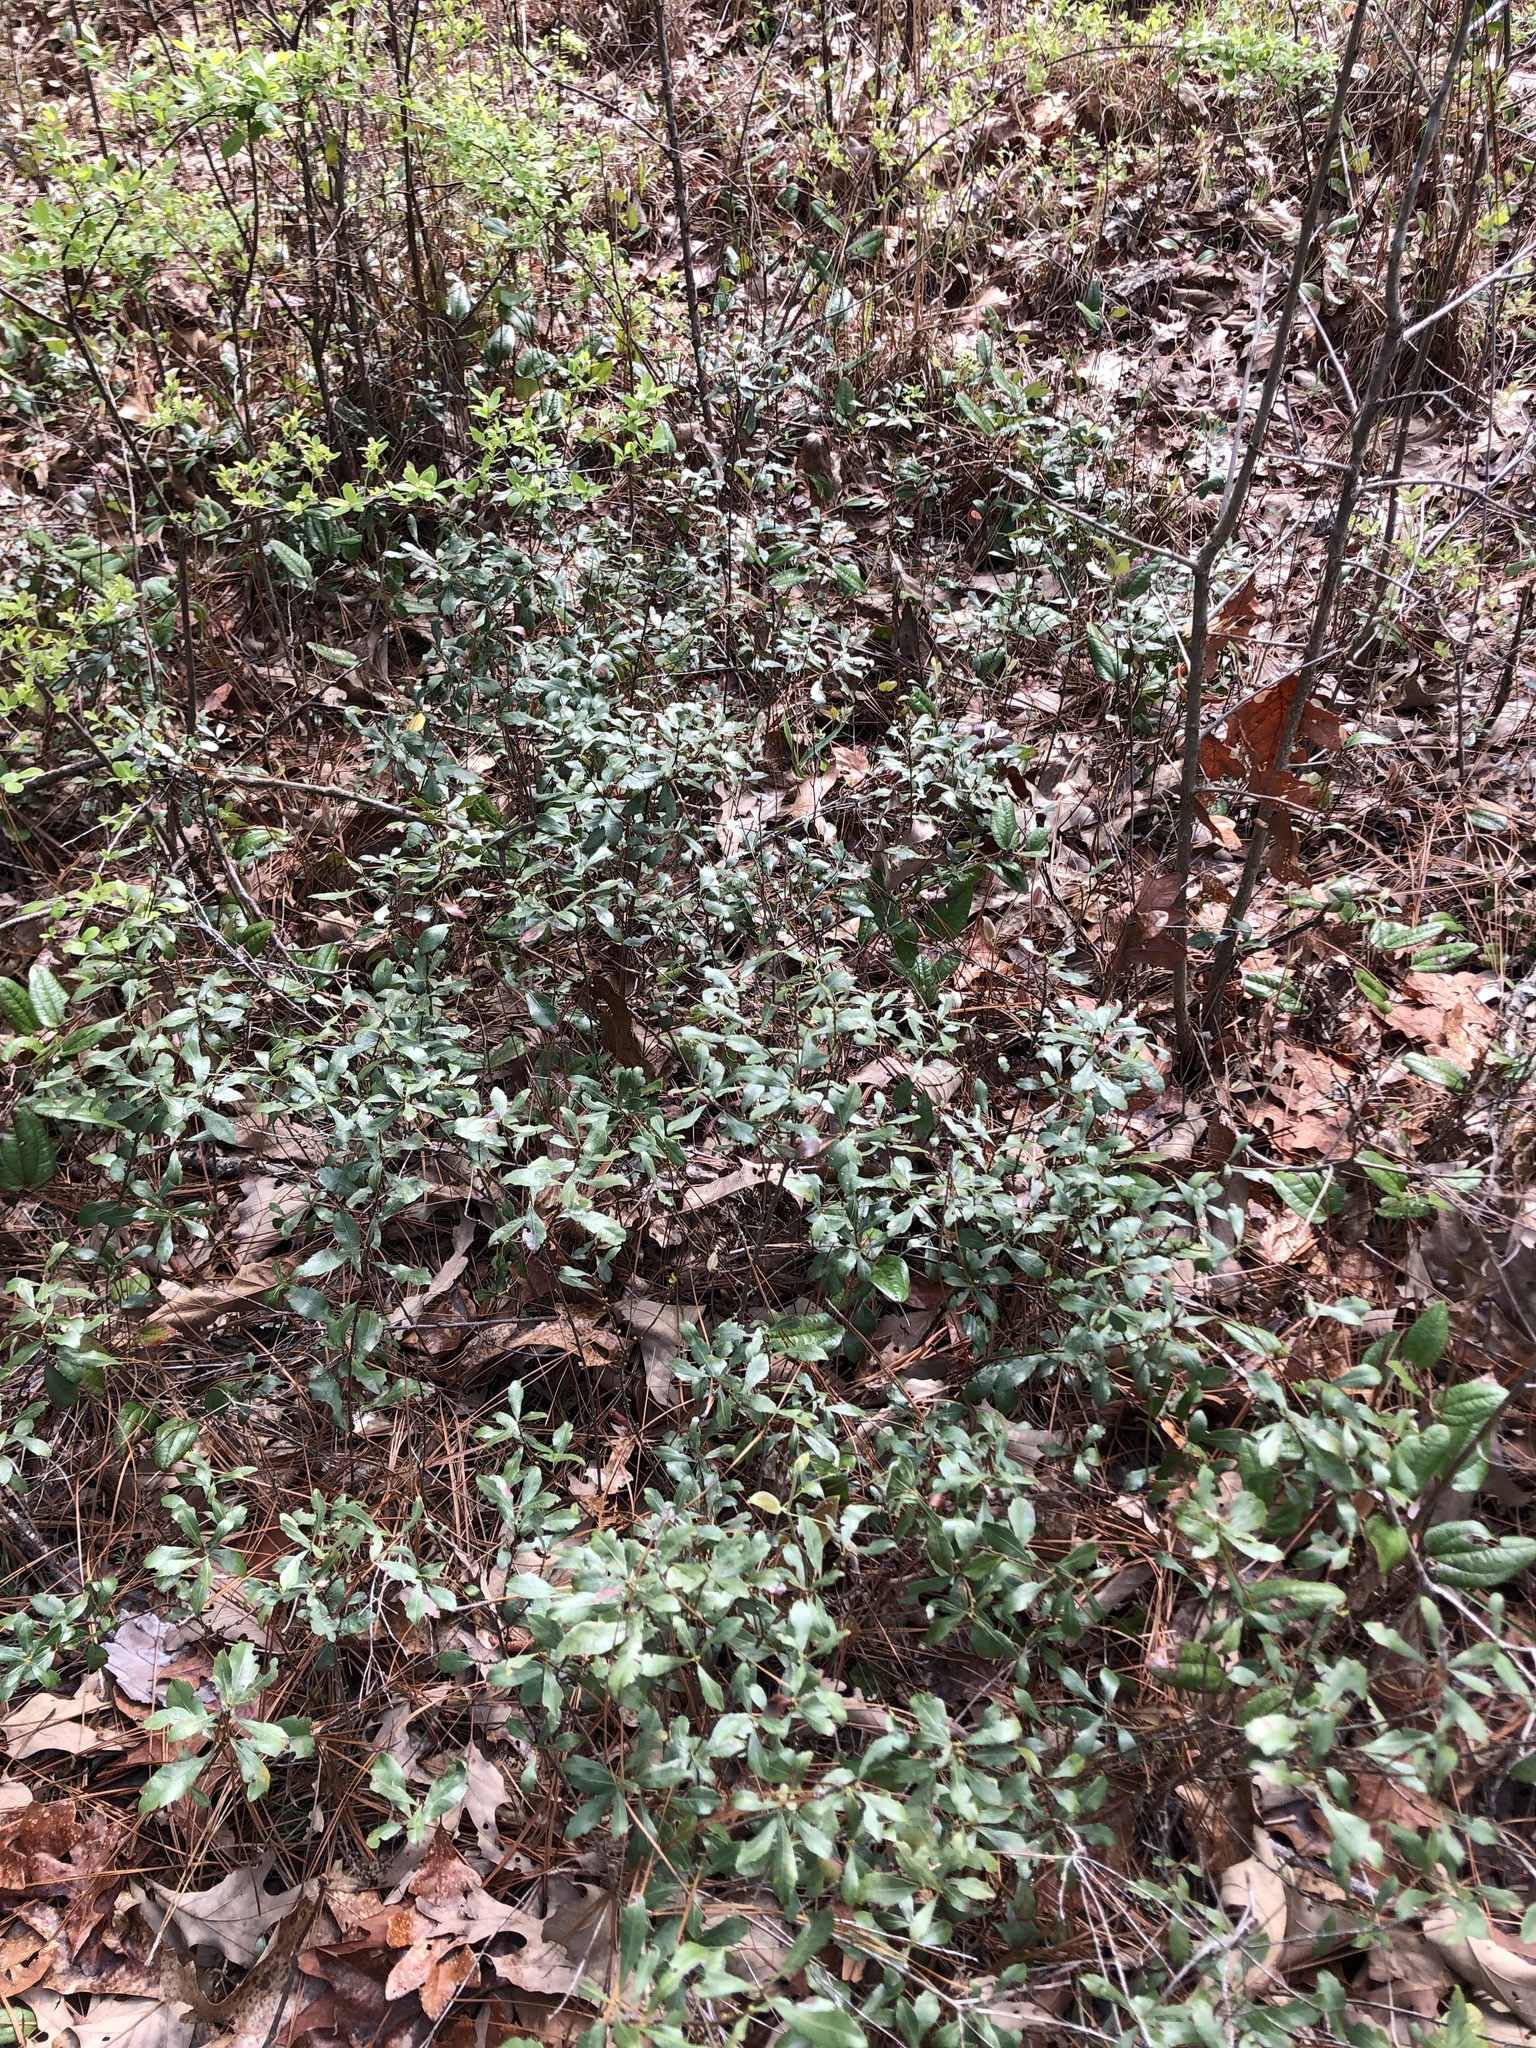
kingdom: Plantae
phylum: Tracheophyta
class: Magnoliopsida
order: Fagales
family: Myricaceae
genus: Morella
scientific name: Morella cerifera
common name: Wax myrtle
